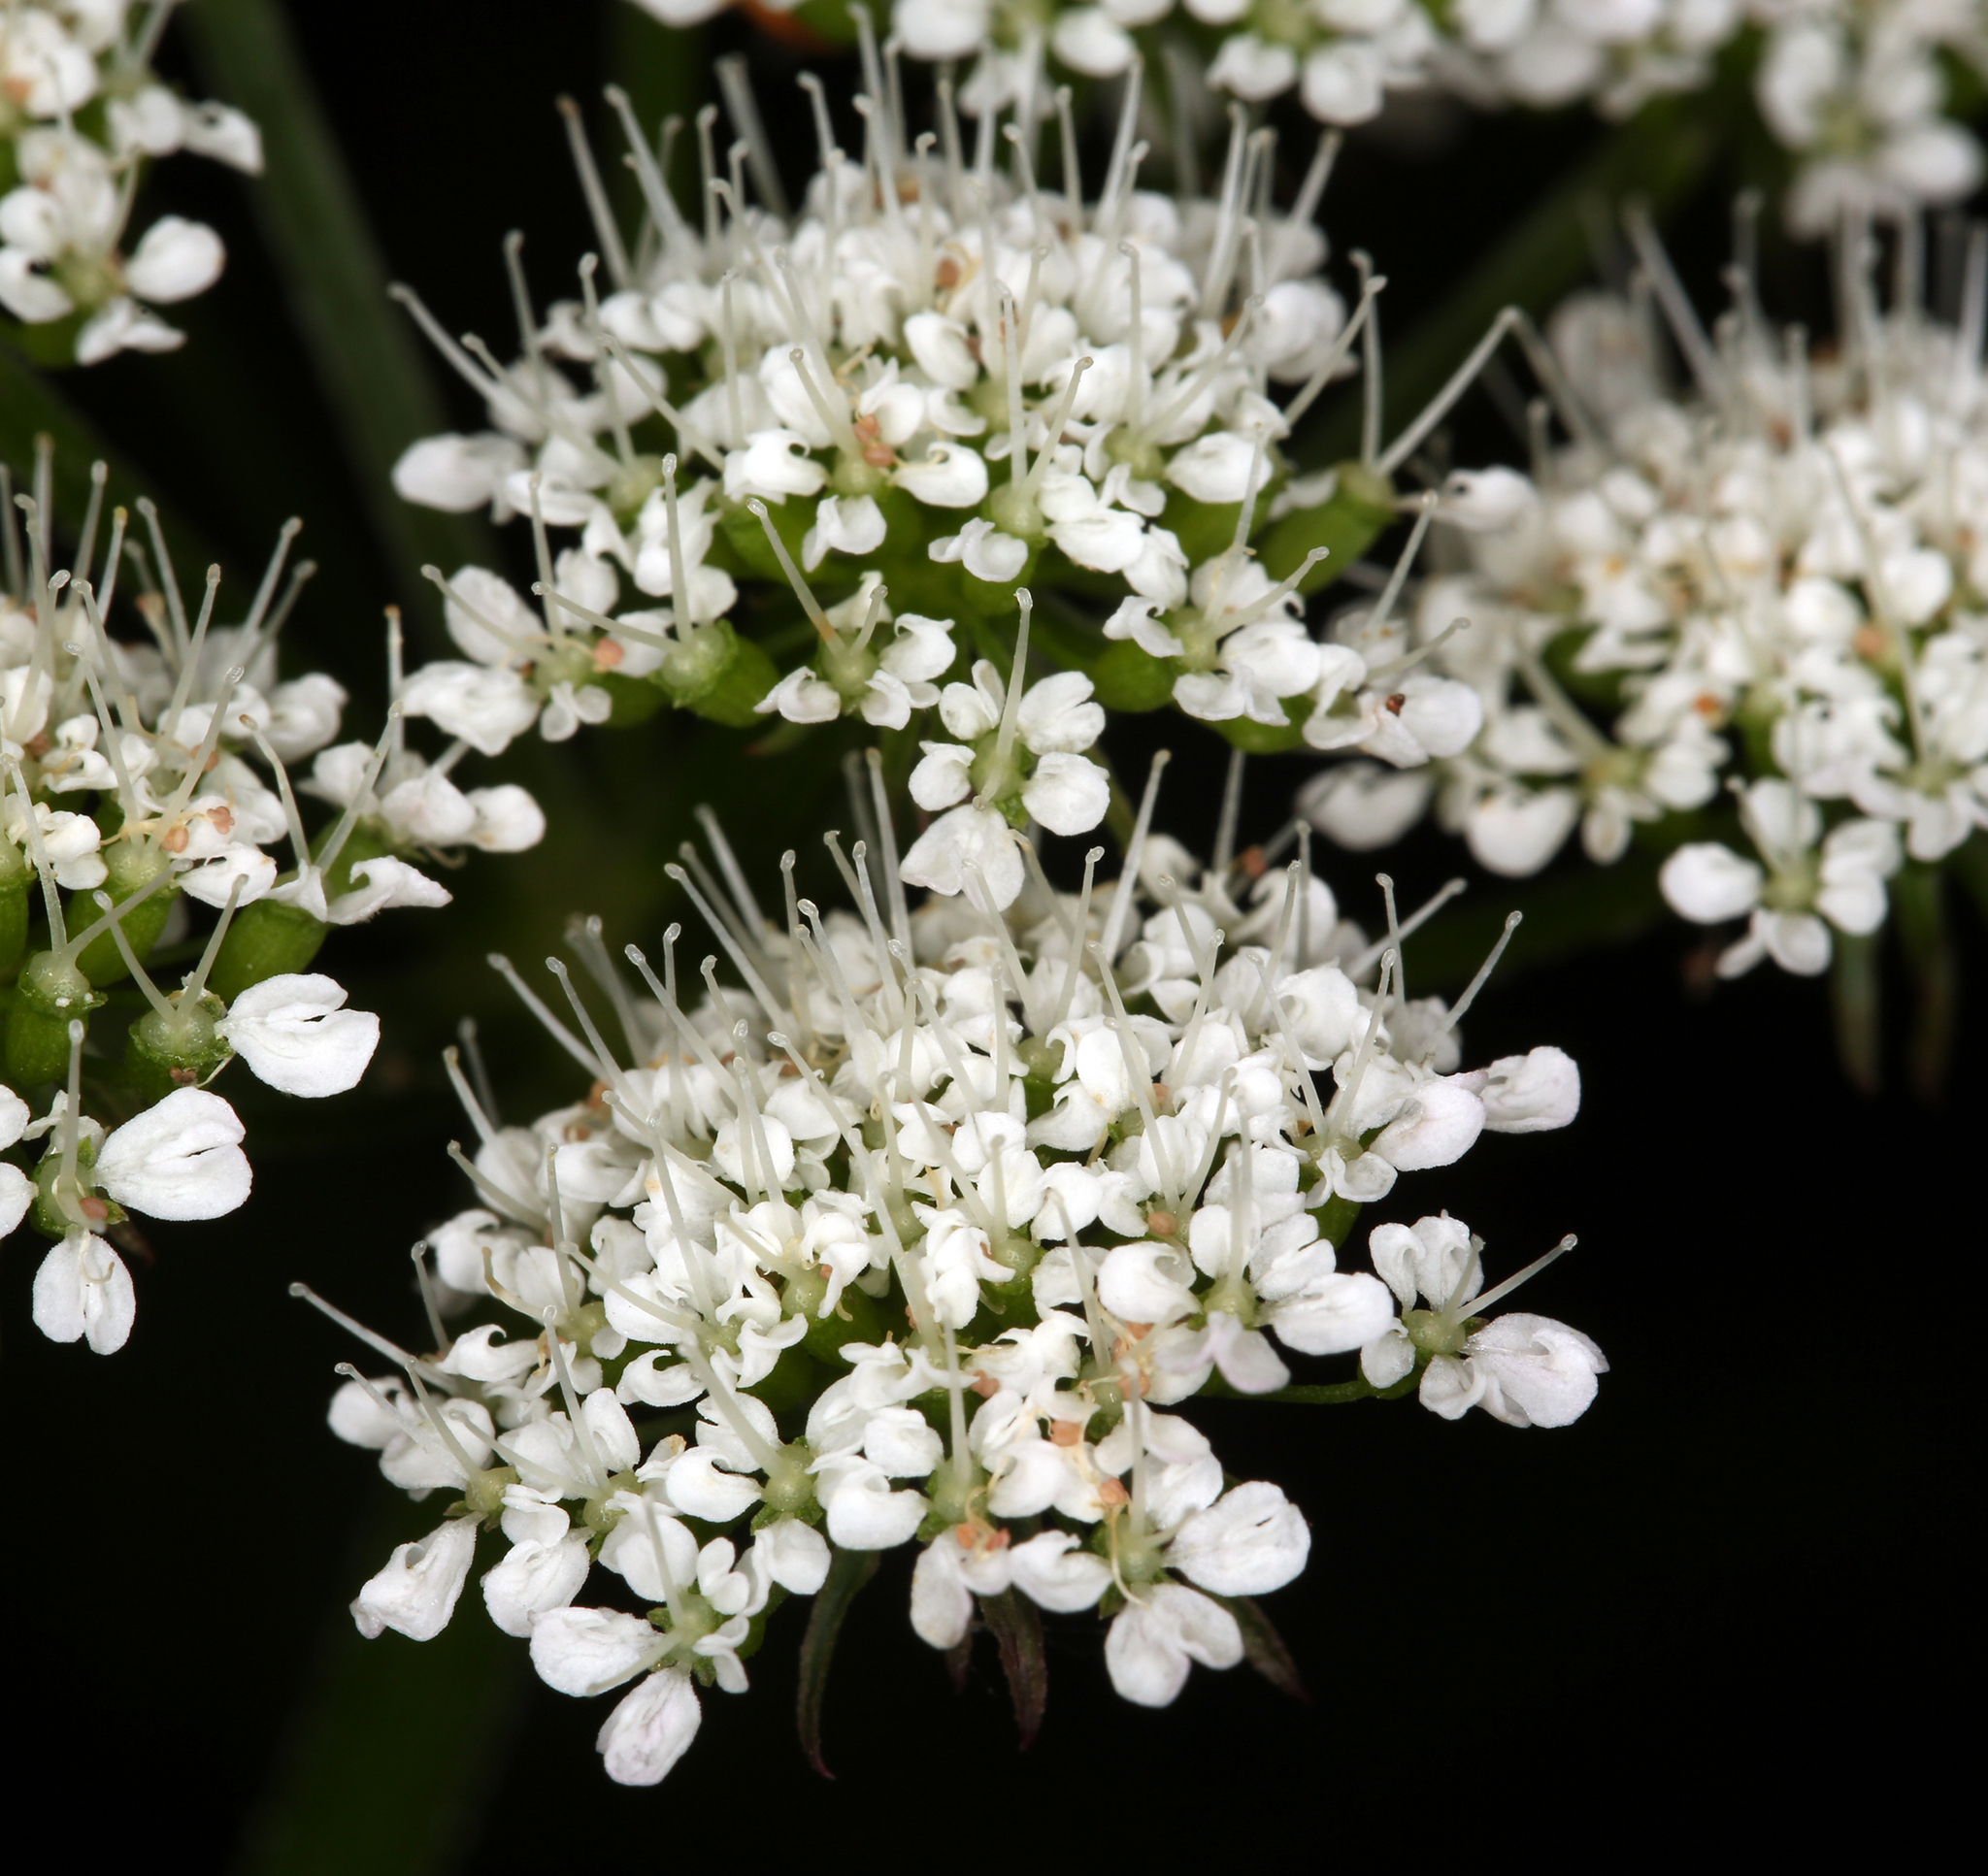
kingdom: Plantae
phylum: Tracheophyta
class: Magnoliopsida
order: Apiales
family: Apiaceae
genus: Oenanthe
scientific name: Oenanthe sarmentosa
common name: American water-parsley
